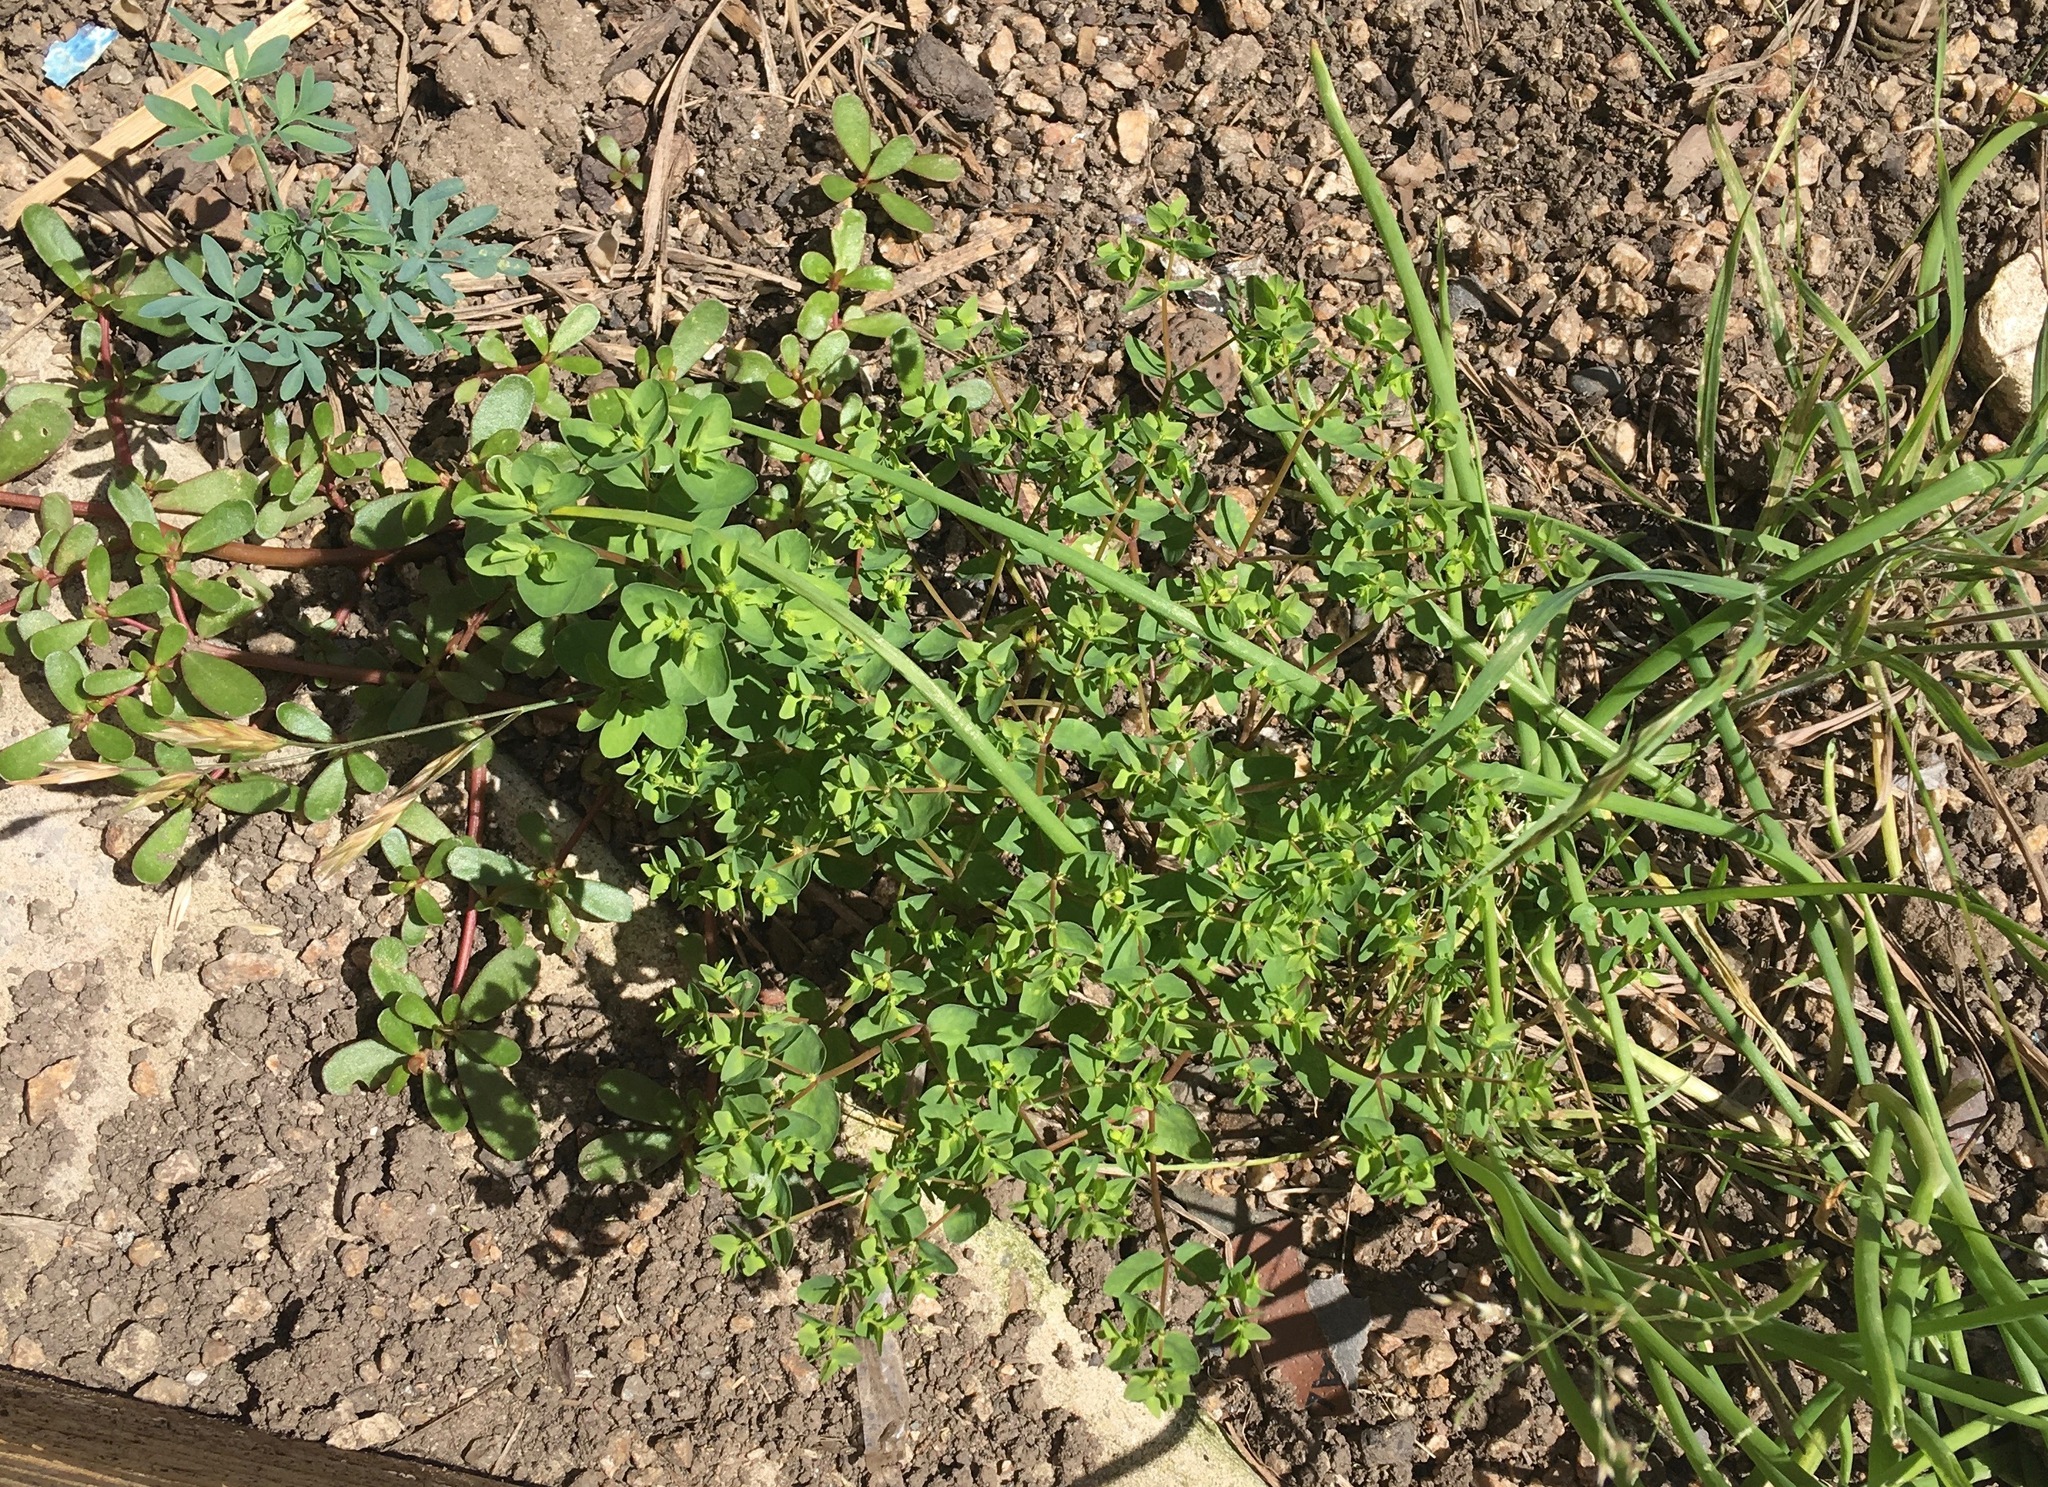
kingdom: Plantae
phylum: Tracheophyta
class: Magnoliopsida
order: Malpighiales
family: Euphorbiaceae
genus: Euphorbia
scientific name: Euphorbia peplus
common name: Petty spurge
